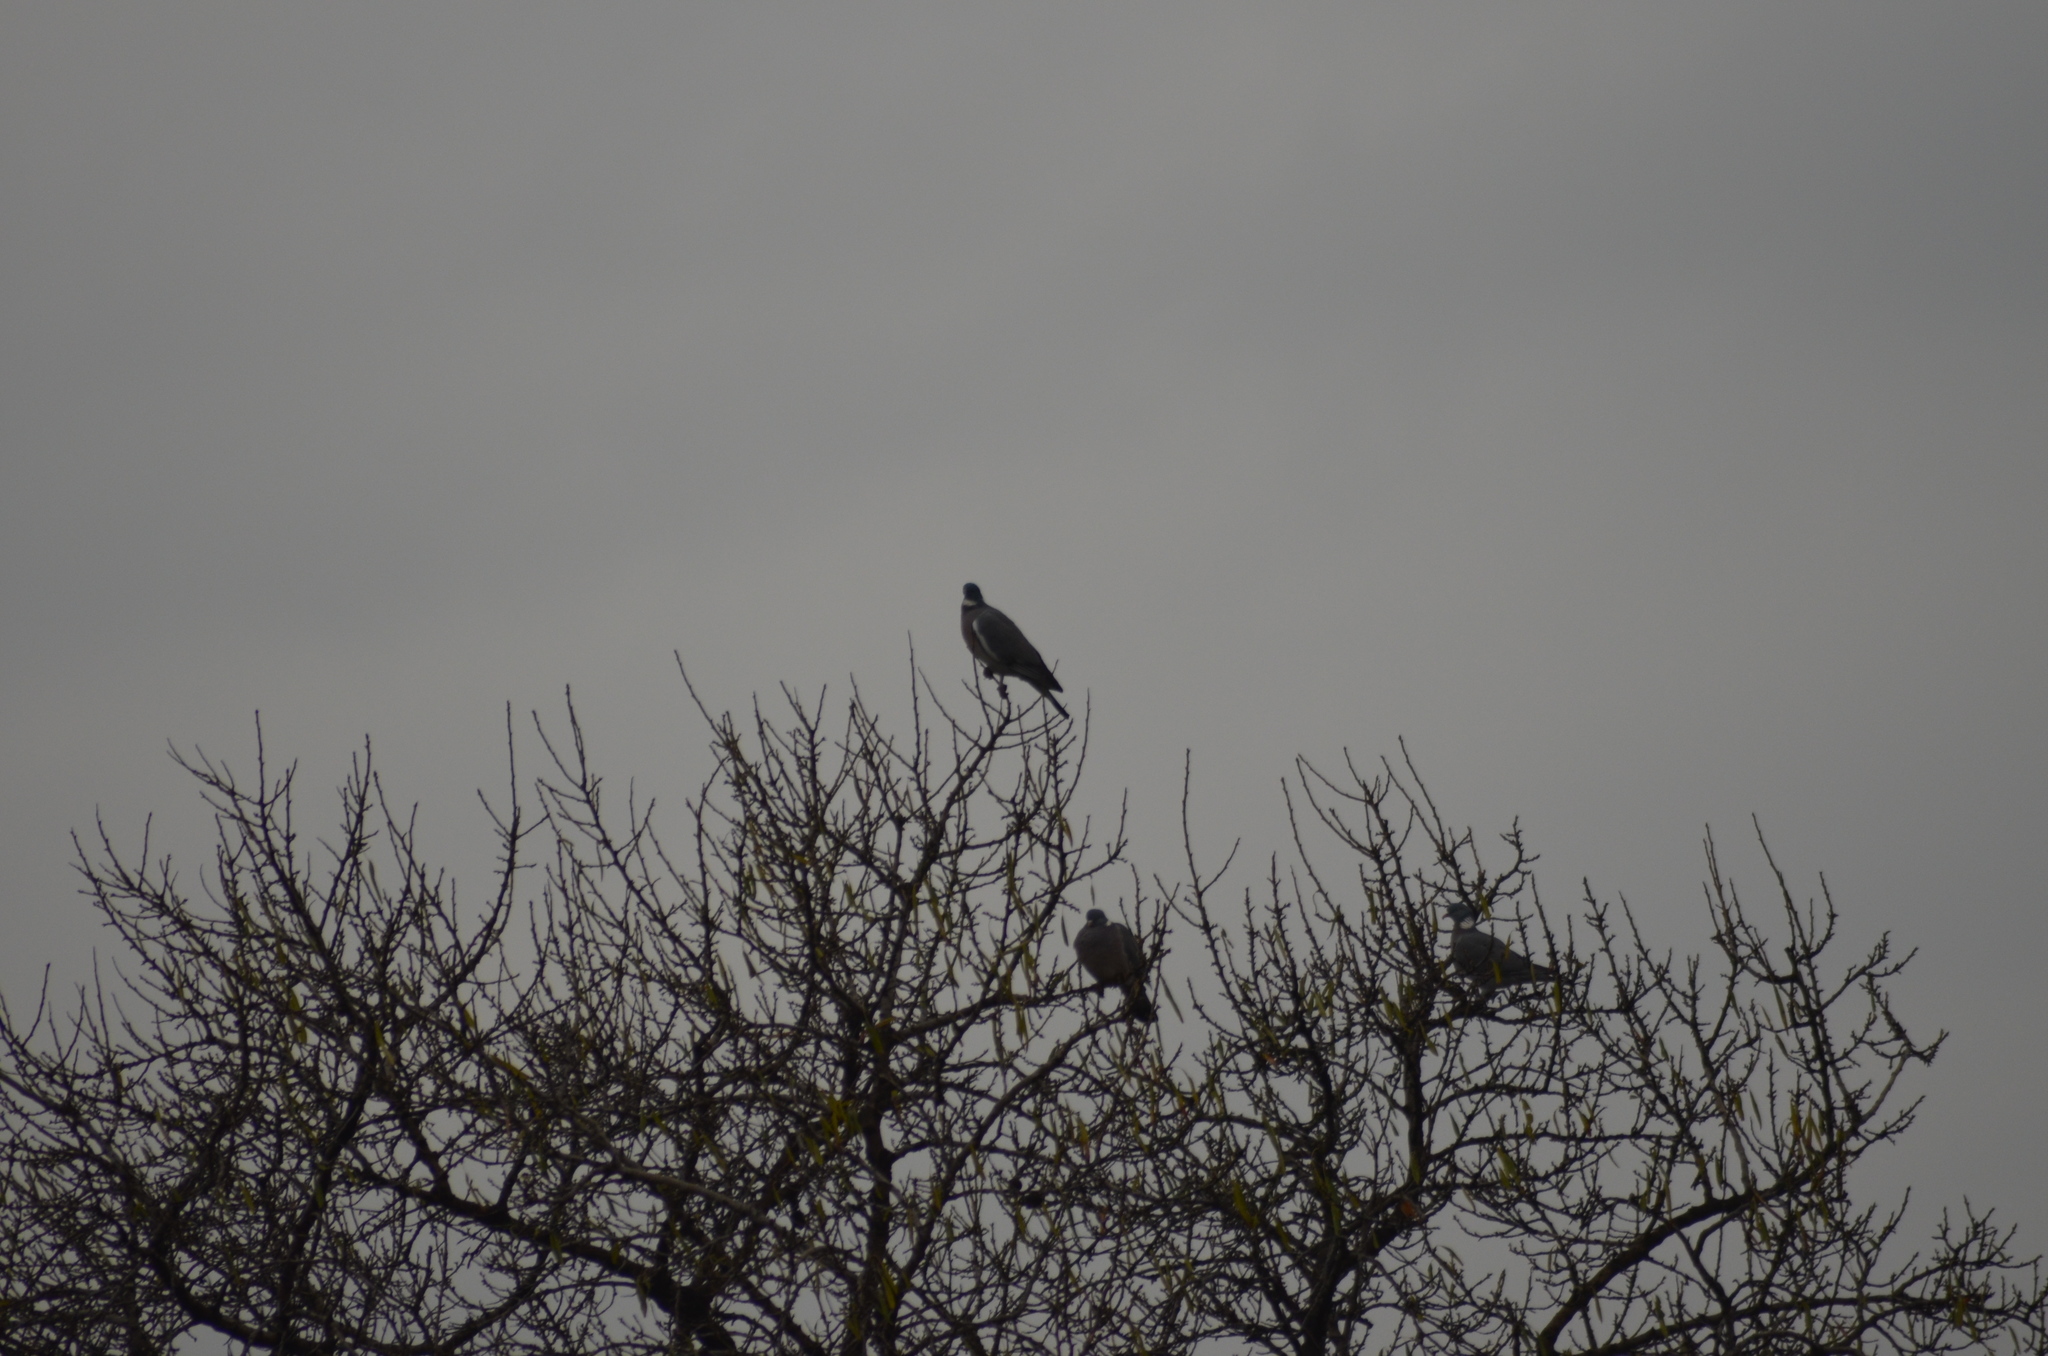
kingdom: Animalia
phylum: Chordata
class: Aves
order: Columbiformes
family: Columbidae
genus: Columba
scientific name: Columba palumbus
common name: Common wood pigeon
